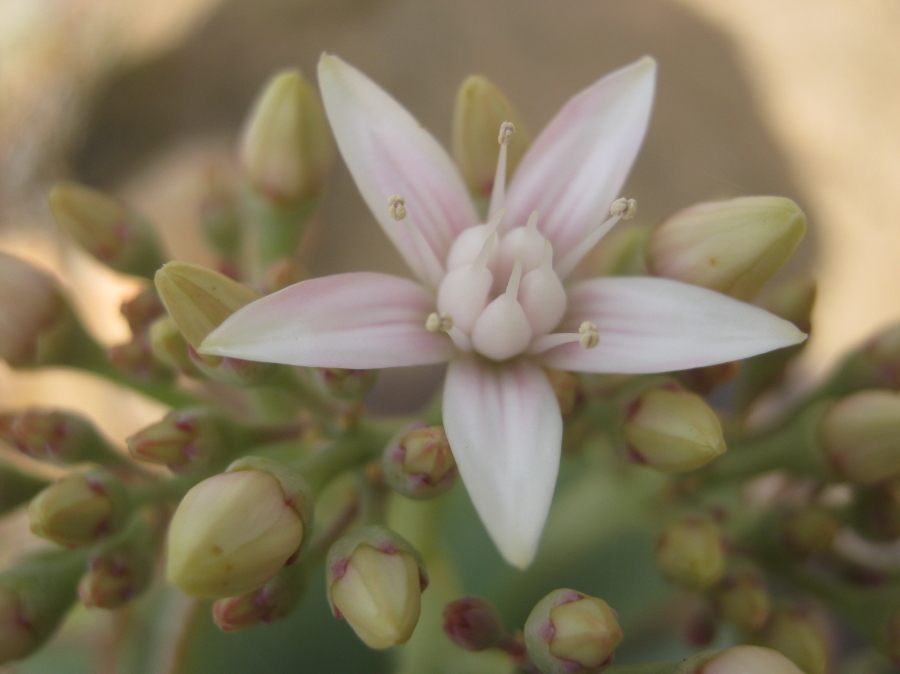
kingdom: Plantae
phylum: Tracheophyta
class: Magnoliopsida
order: Saxifragales
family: Crassulaceae
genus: Crassula
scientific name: Crassula arborescens
